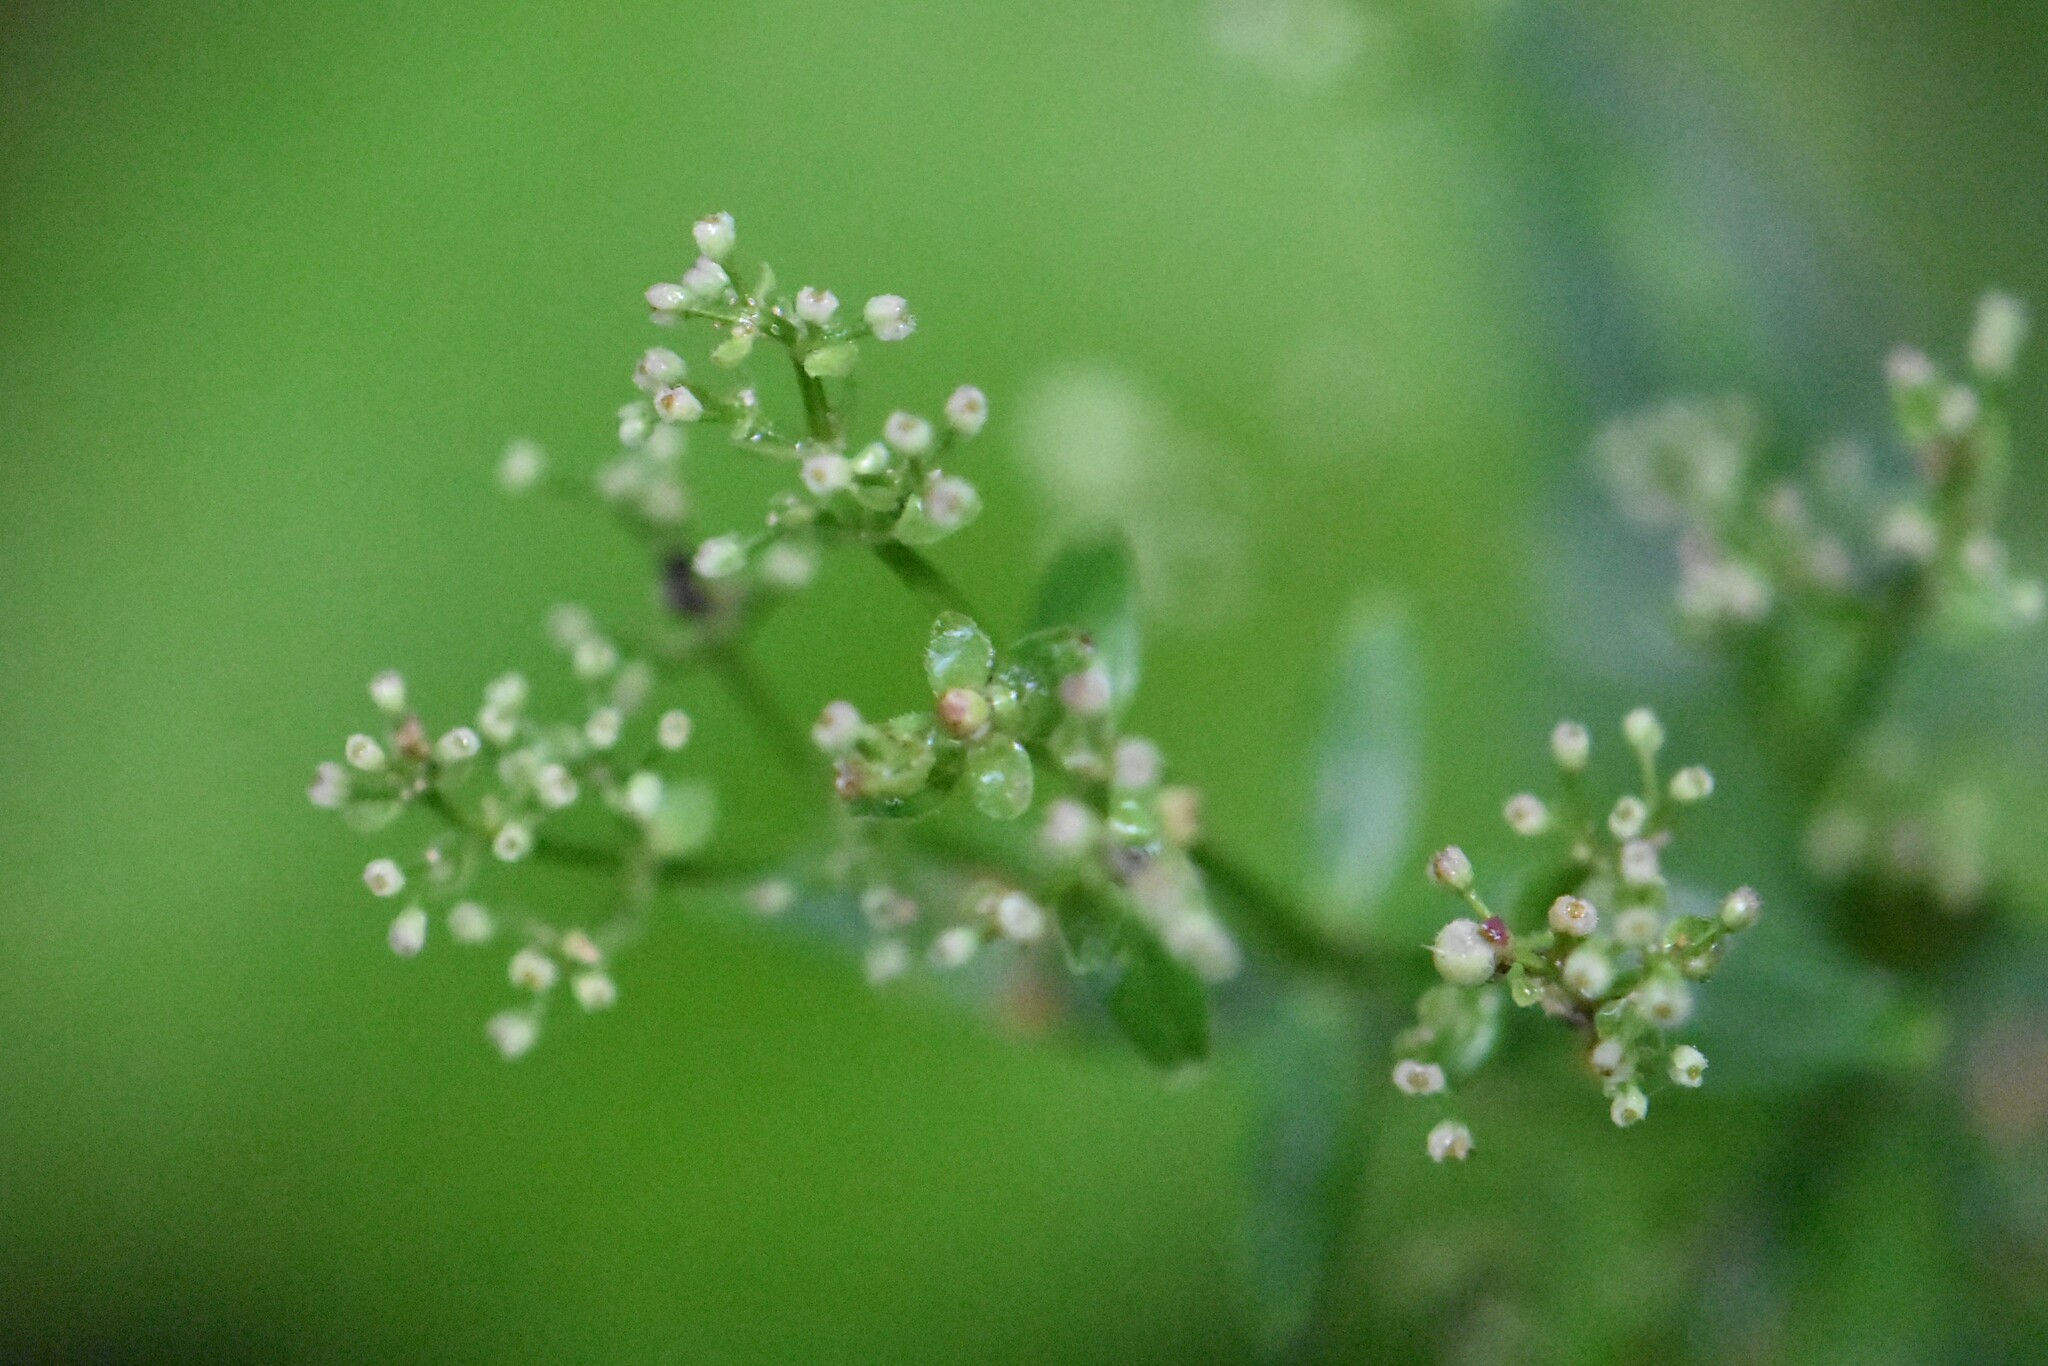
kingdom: Plantae
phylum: Tracheophyta
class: Magnoliopsida
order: Gentianales
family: Rubiaceae
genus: Galium
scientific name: Galium rubioides
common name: European bedstraw
